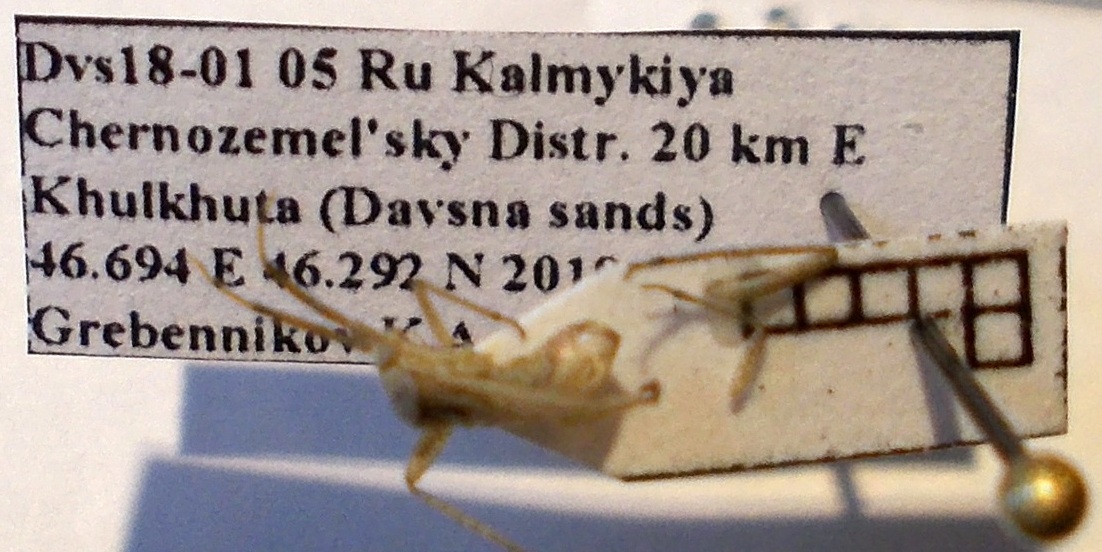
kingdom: Animalia
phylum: Arthropoda
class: Insecta
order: Hemiptera
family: Miridae
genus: Oncotylus
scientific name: Oncotylus setulosus
